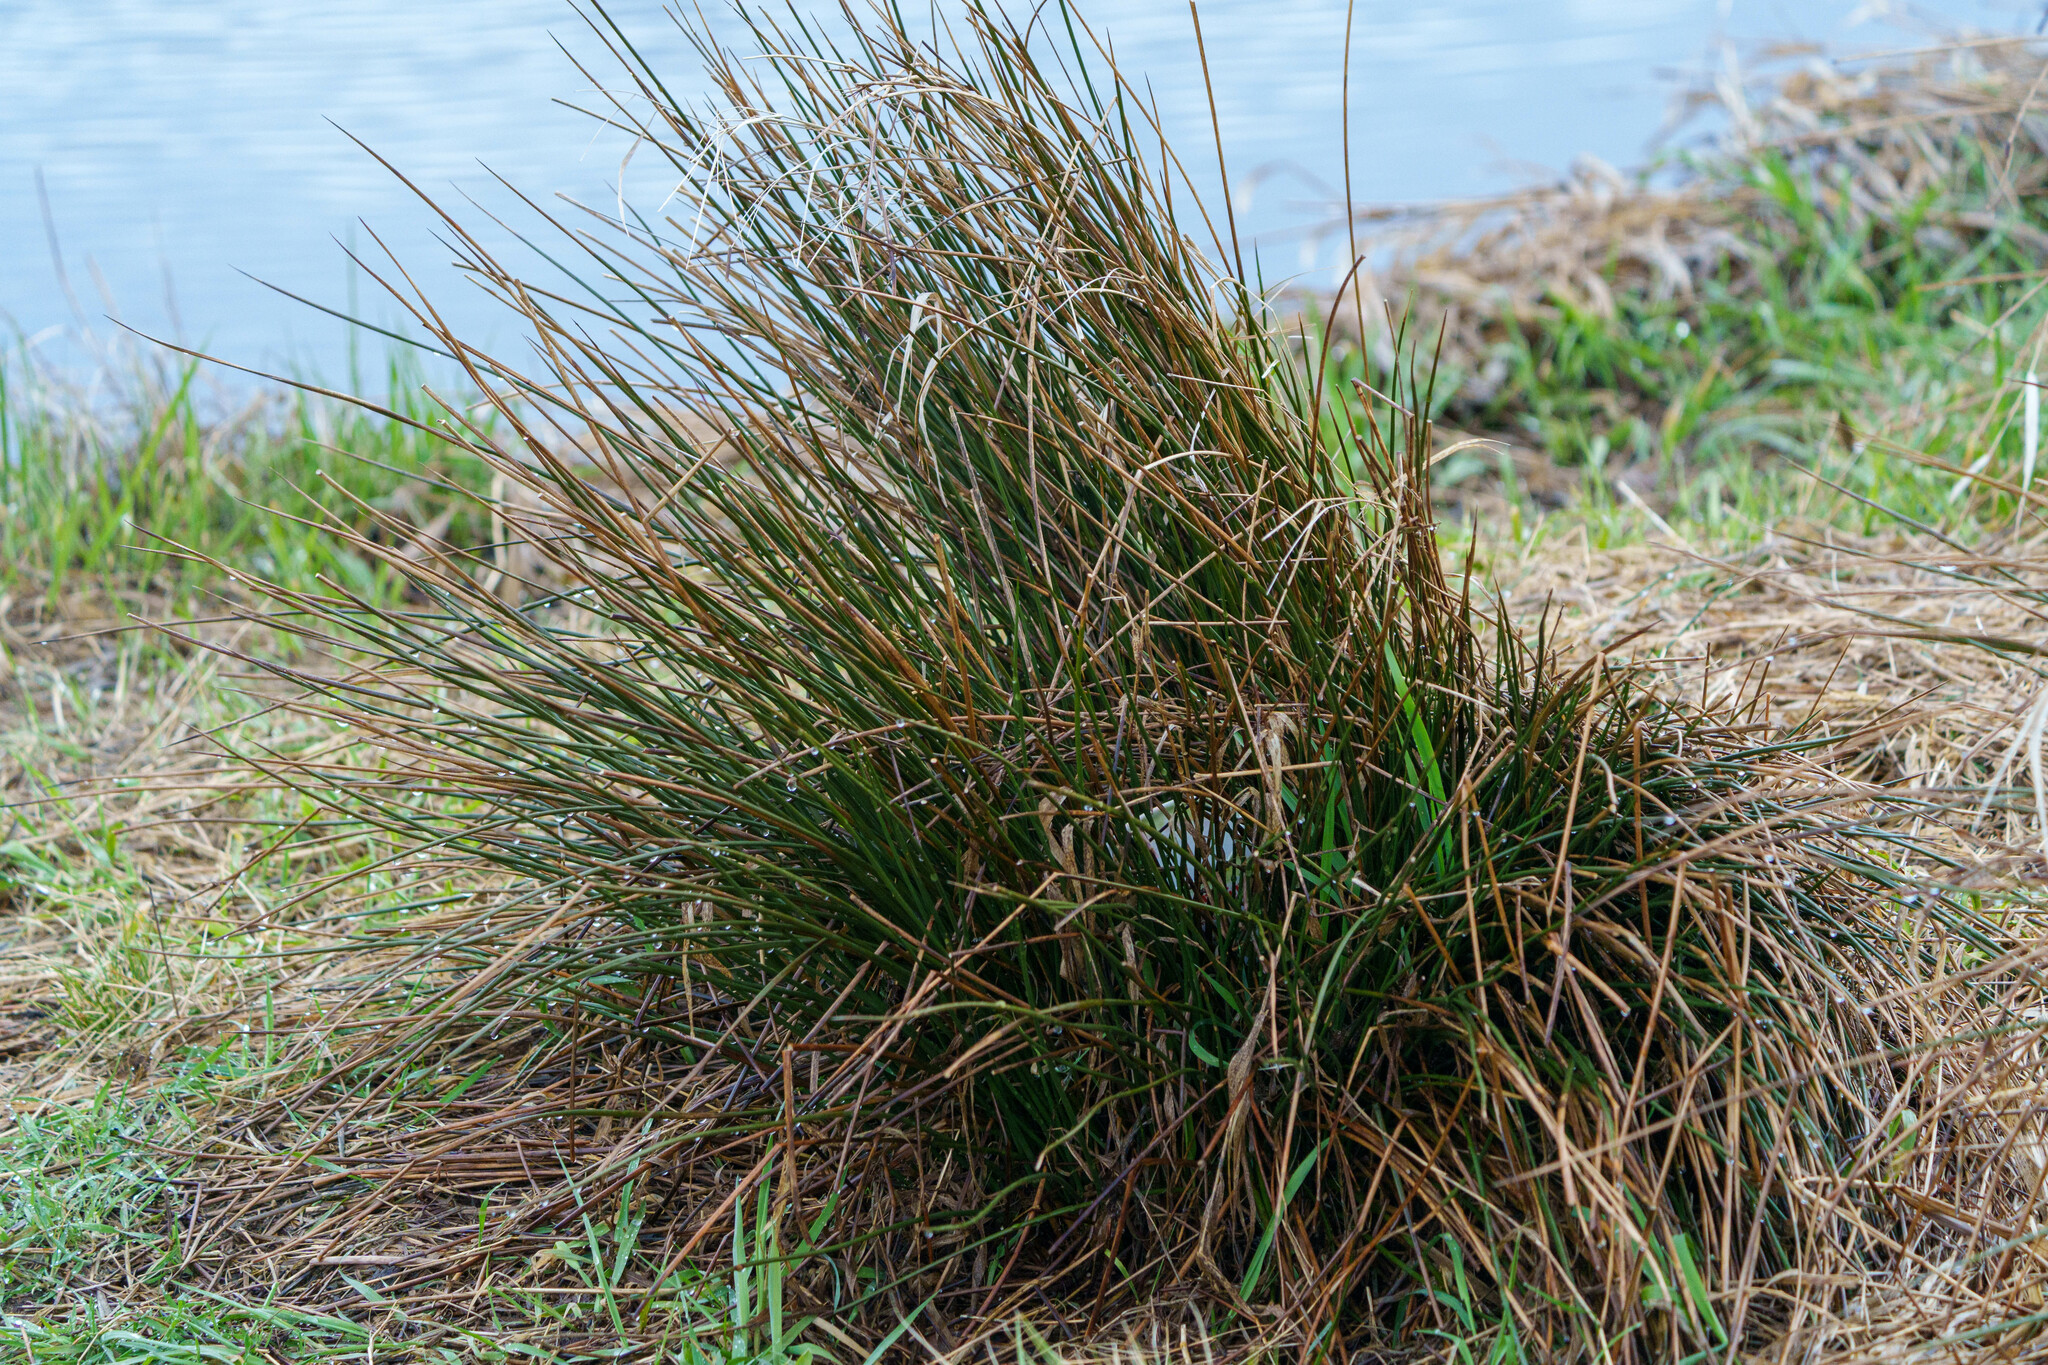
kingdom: Plantae
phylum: Tracheophyta
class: Liliopsida
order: Poales
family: Juncaceae
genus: Juncus
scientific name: Juncus effusus
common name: Soft rush
